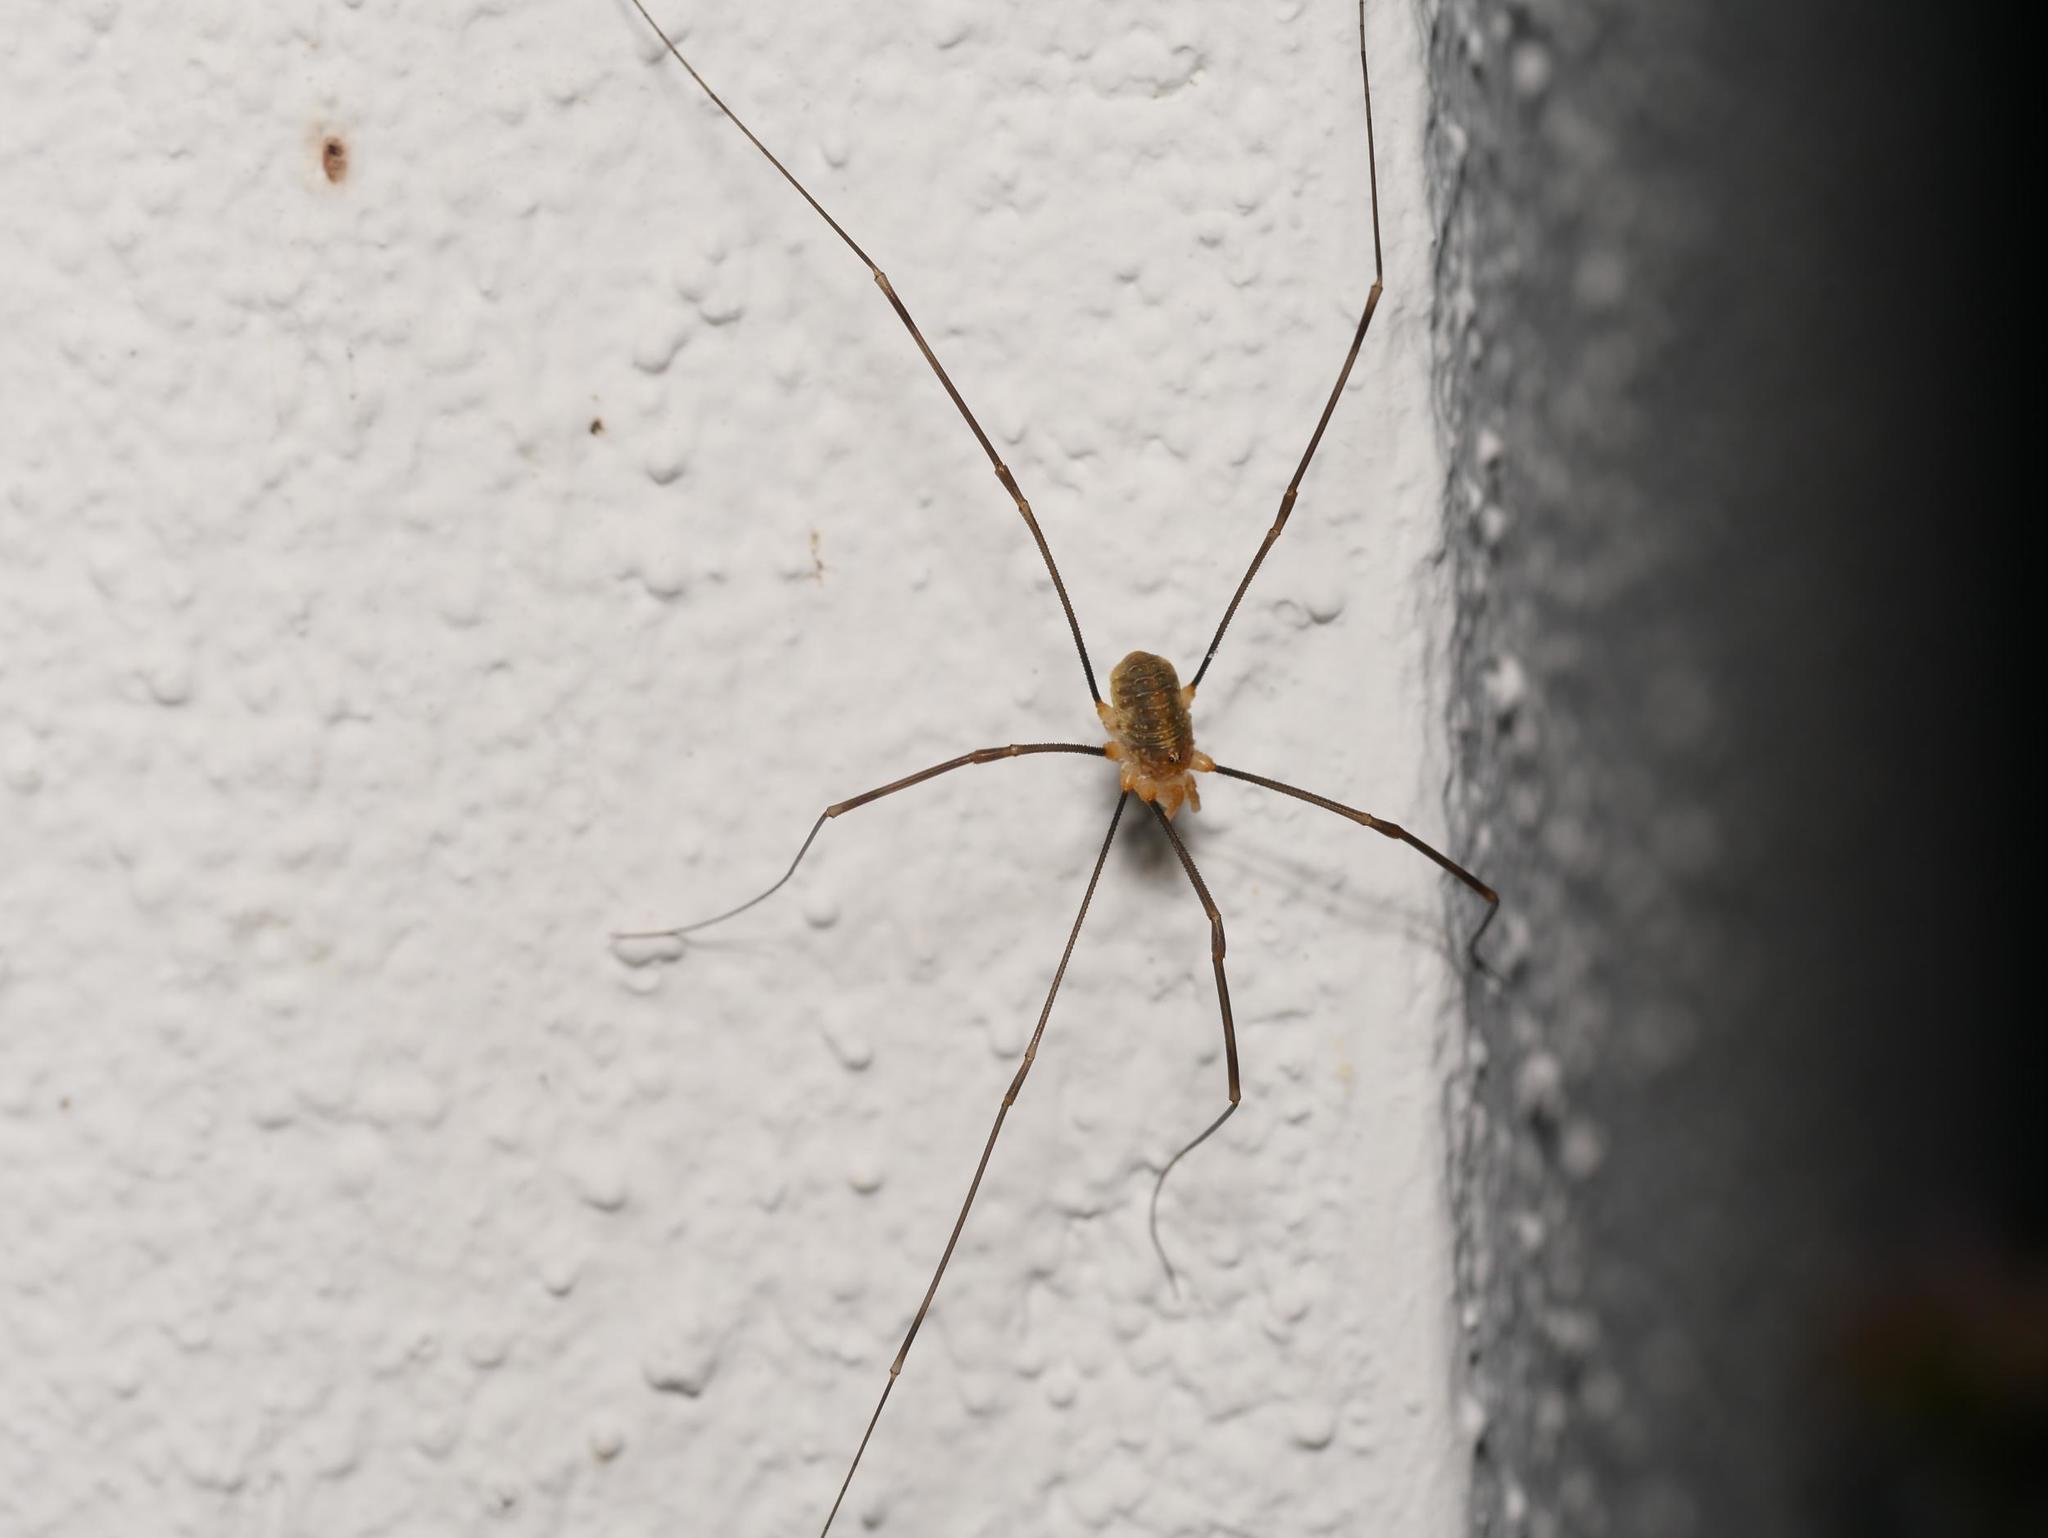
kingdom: Animalia
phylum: Arthropoda
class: Arachnida
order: Opiliones
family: Phalangiidae
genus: Opilio
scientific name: Opilio canestrinii
